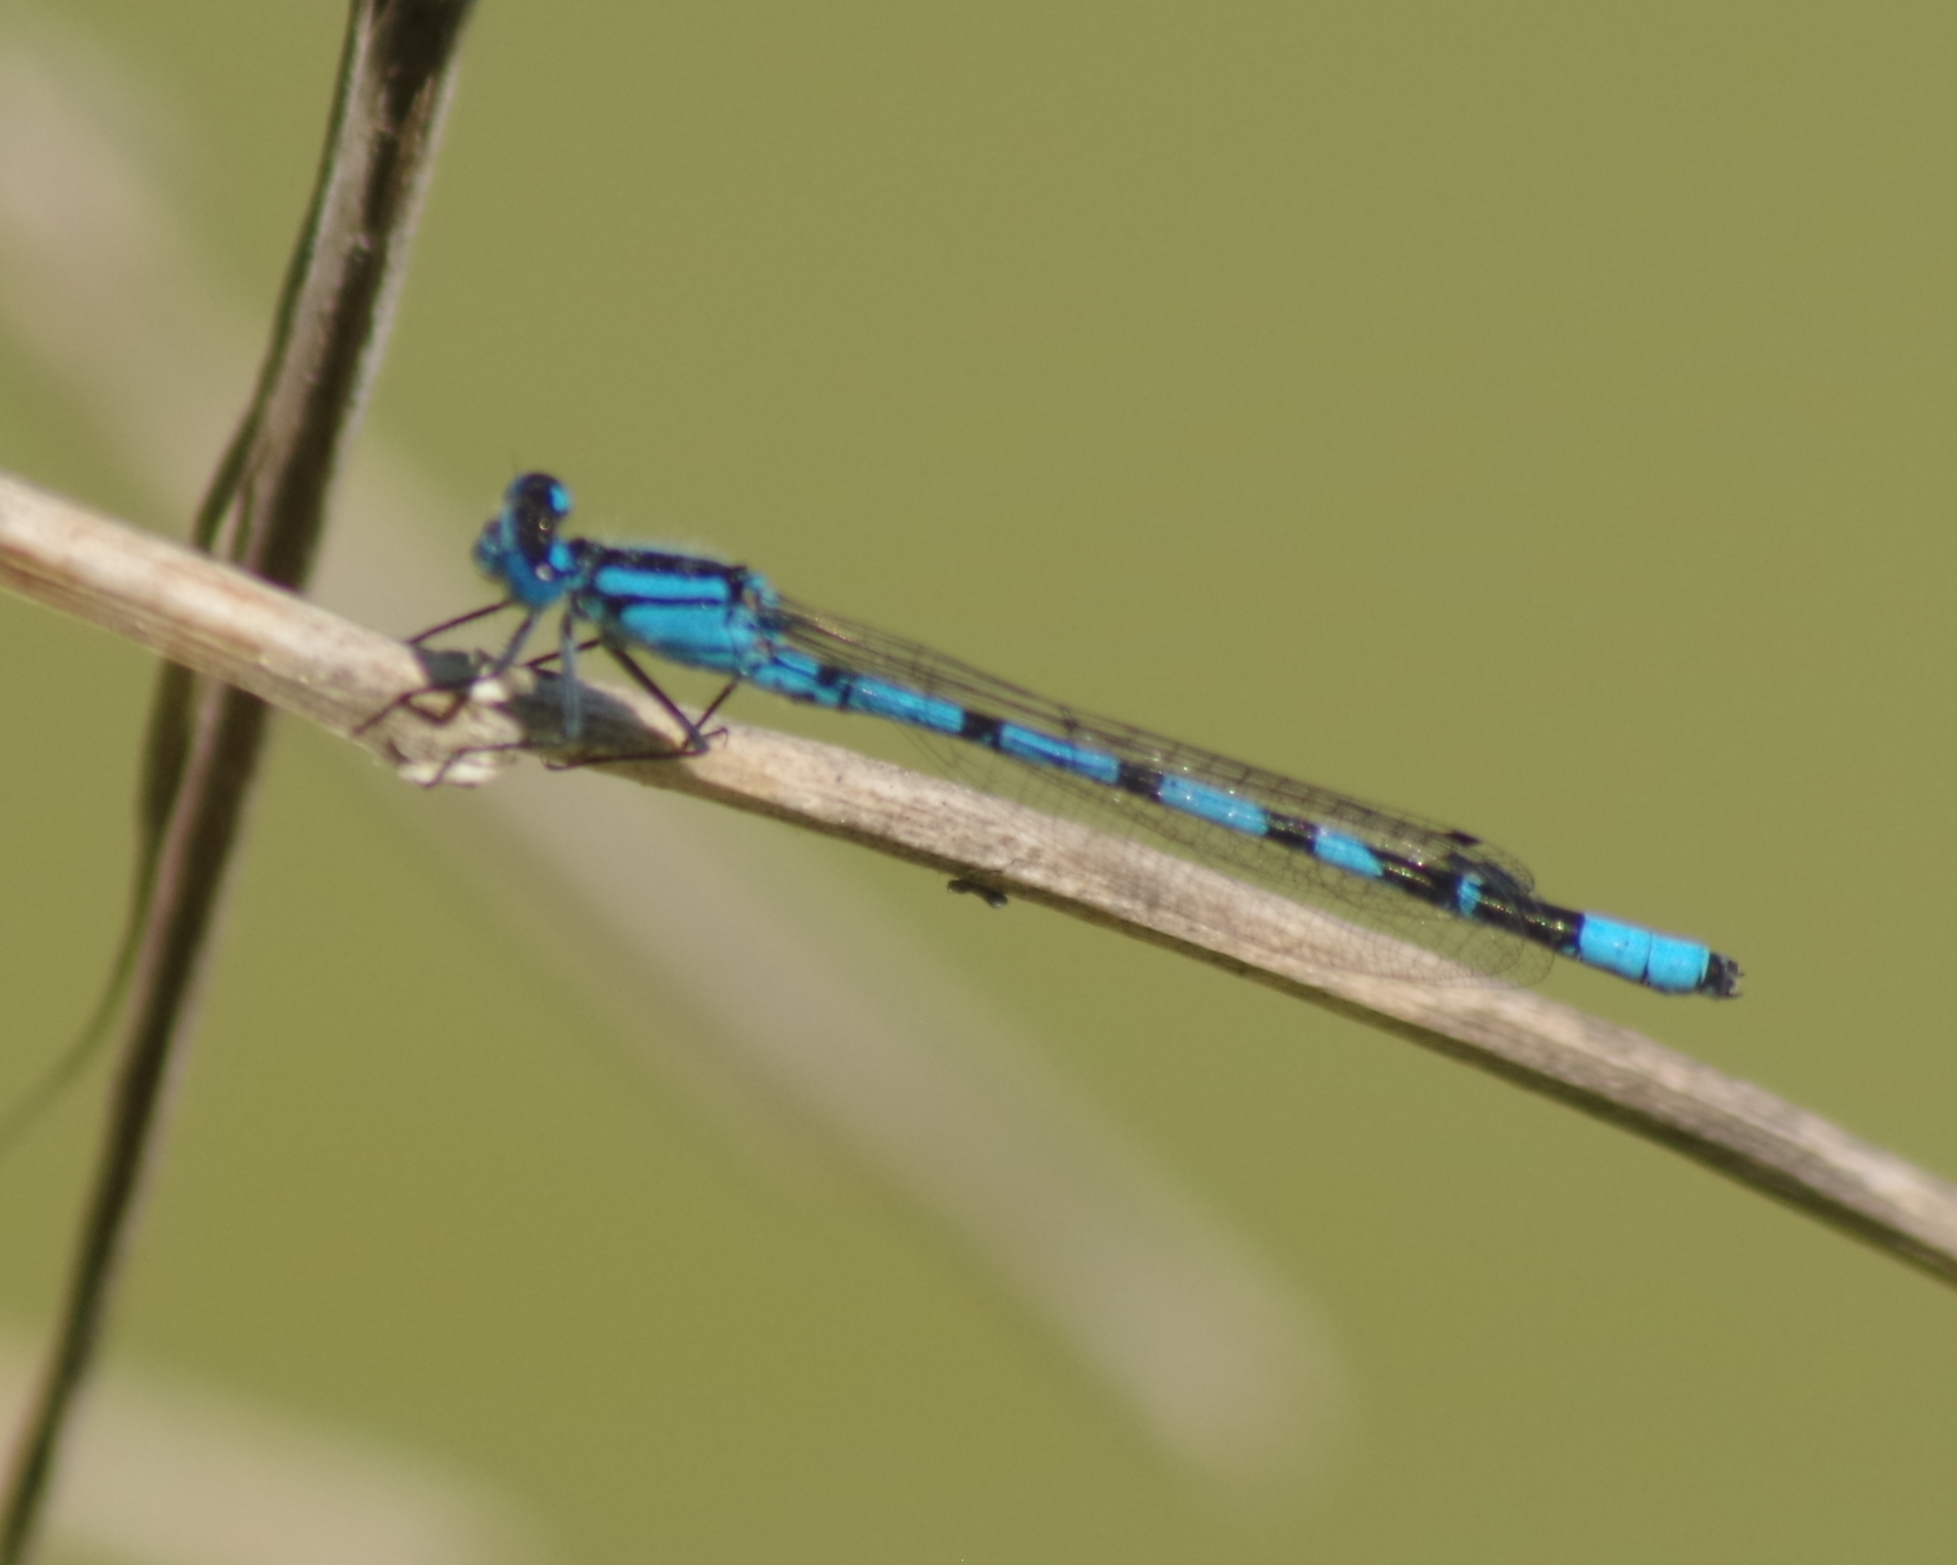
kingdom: Animalia
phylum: Arthropoda
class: Insecta
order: Odonata
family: Coenagrionidae
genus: Enallagma
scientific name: Enallagma cyathigerum
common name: Common blue damselfly
